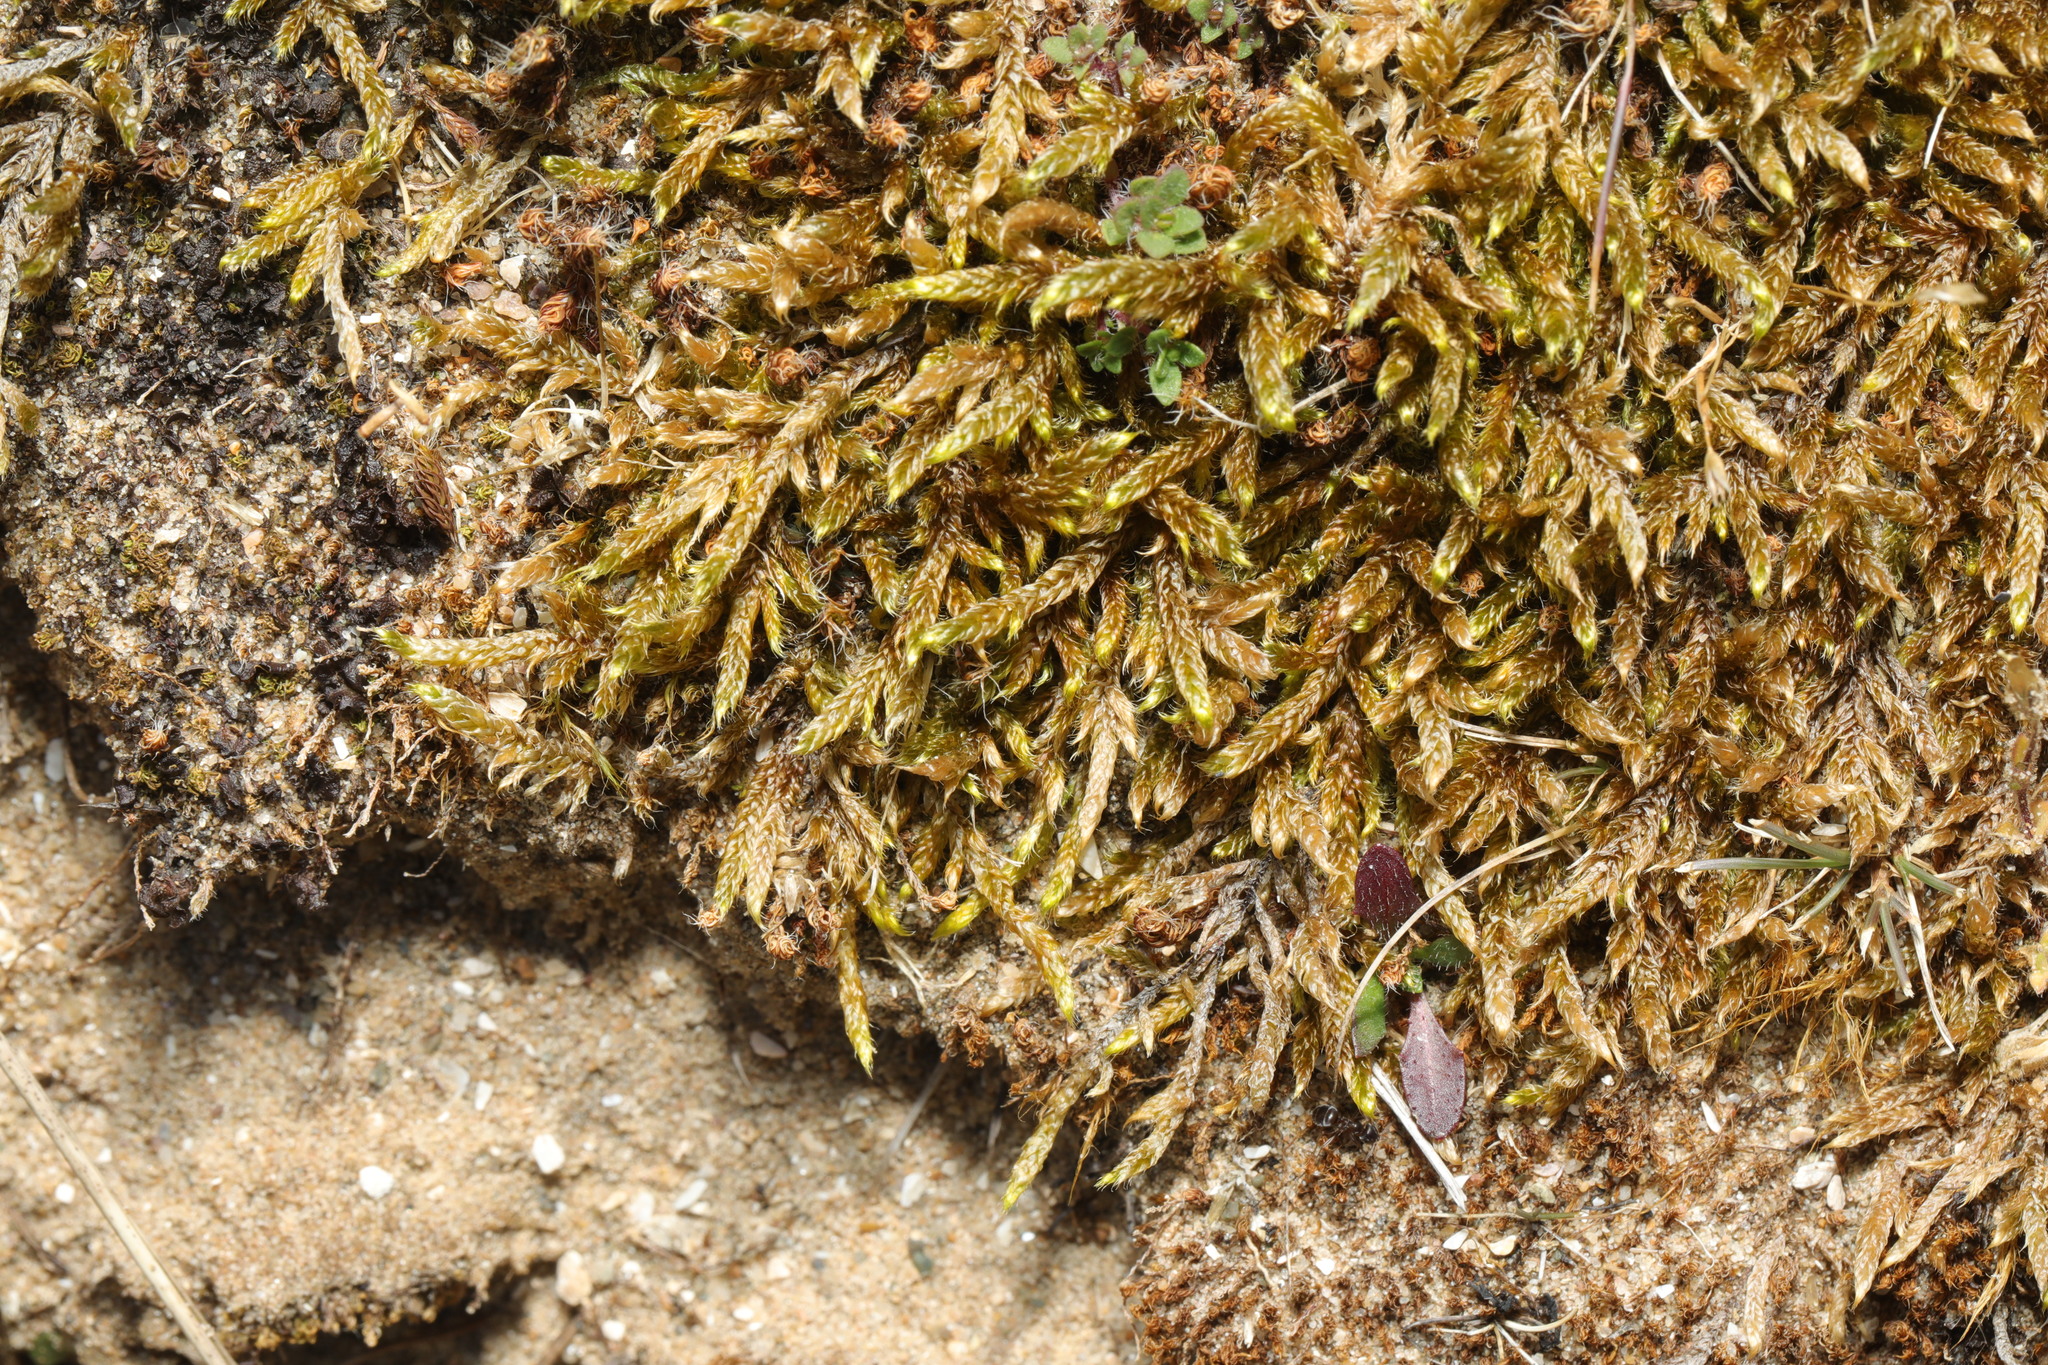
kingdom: Plantae
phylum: Bryophyta
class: Bryopsida
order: Hypnales
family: Hypnaceae
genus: Hypnum
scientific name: Hypnum cupressiforme
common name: Cypress-leaved plait-moss
